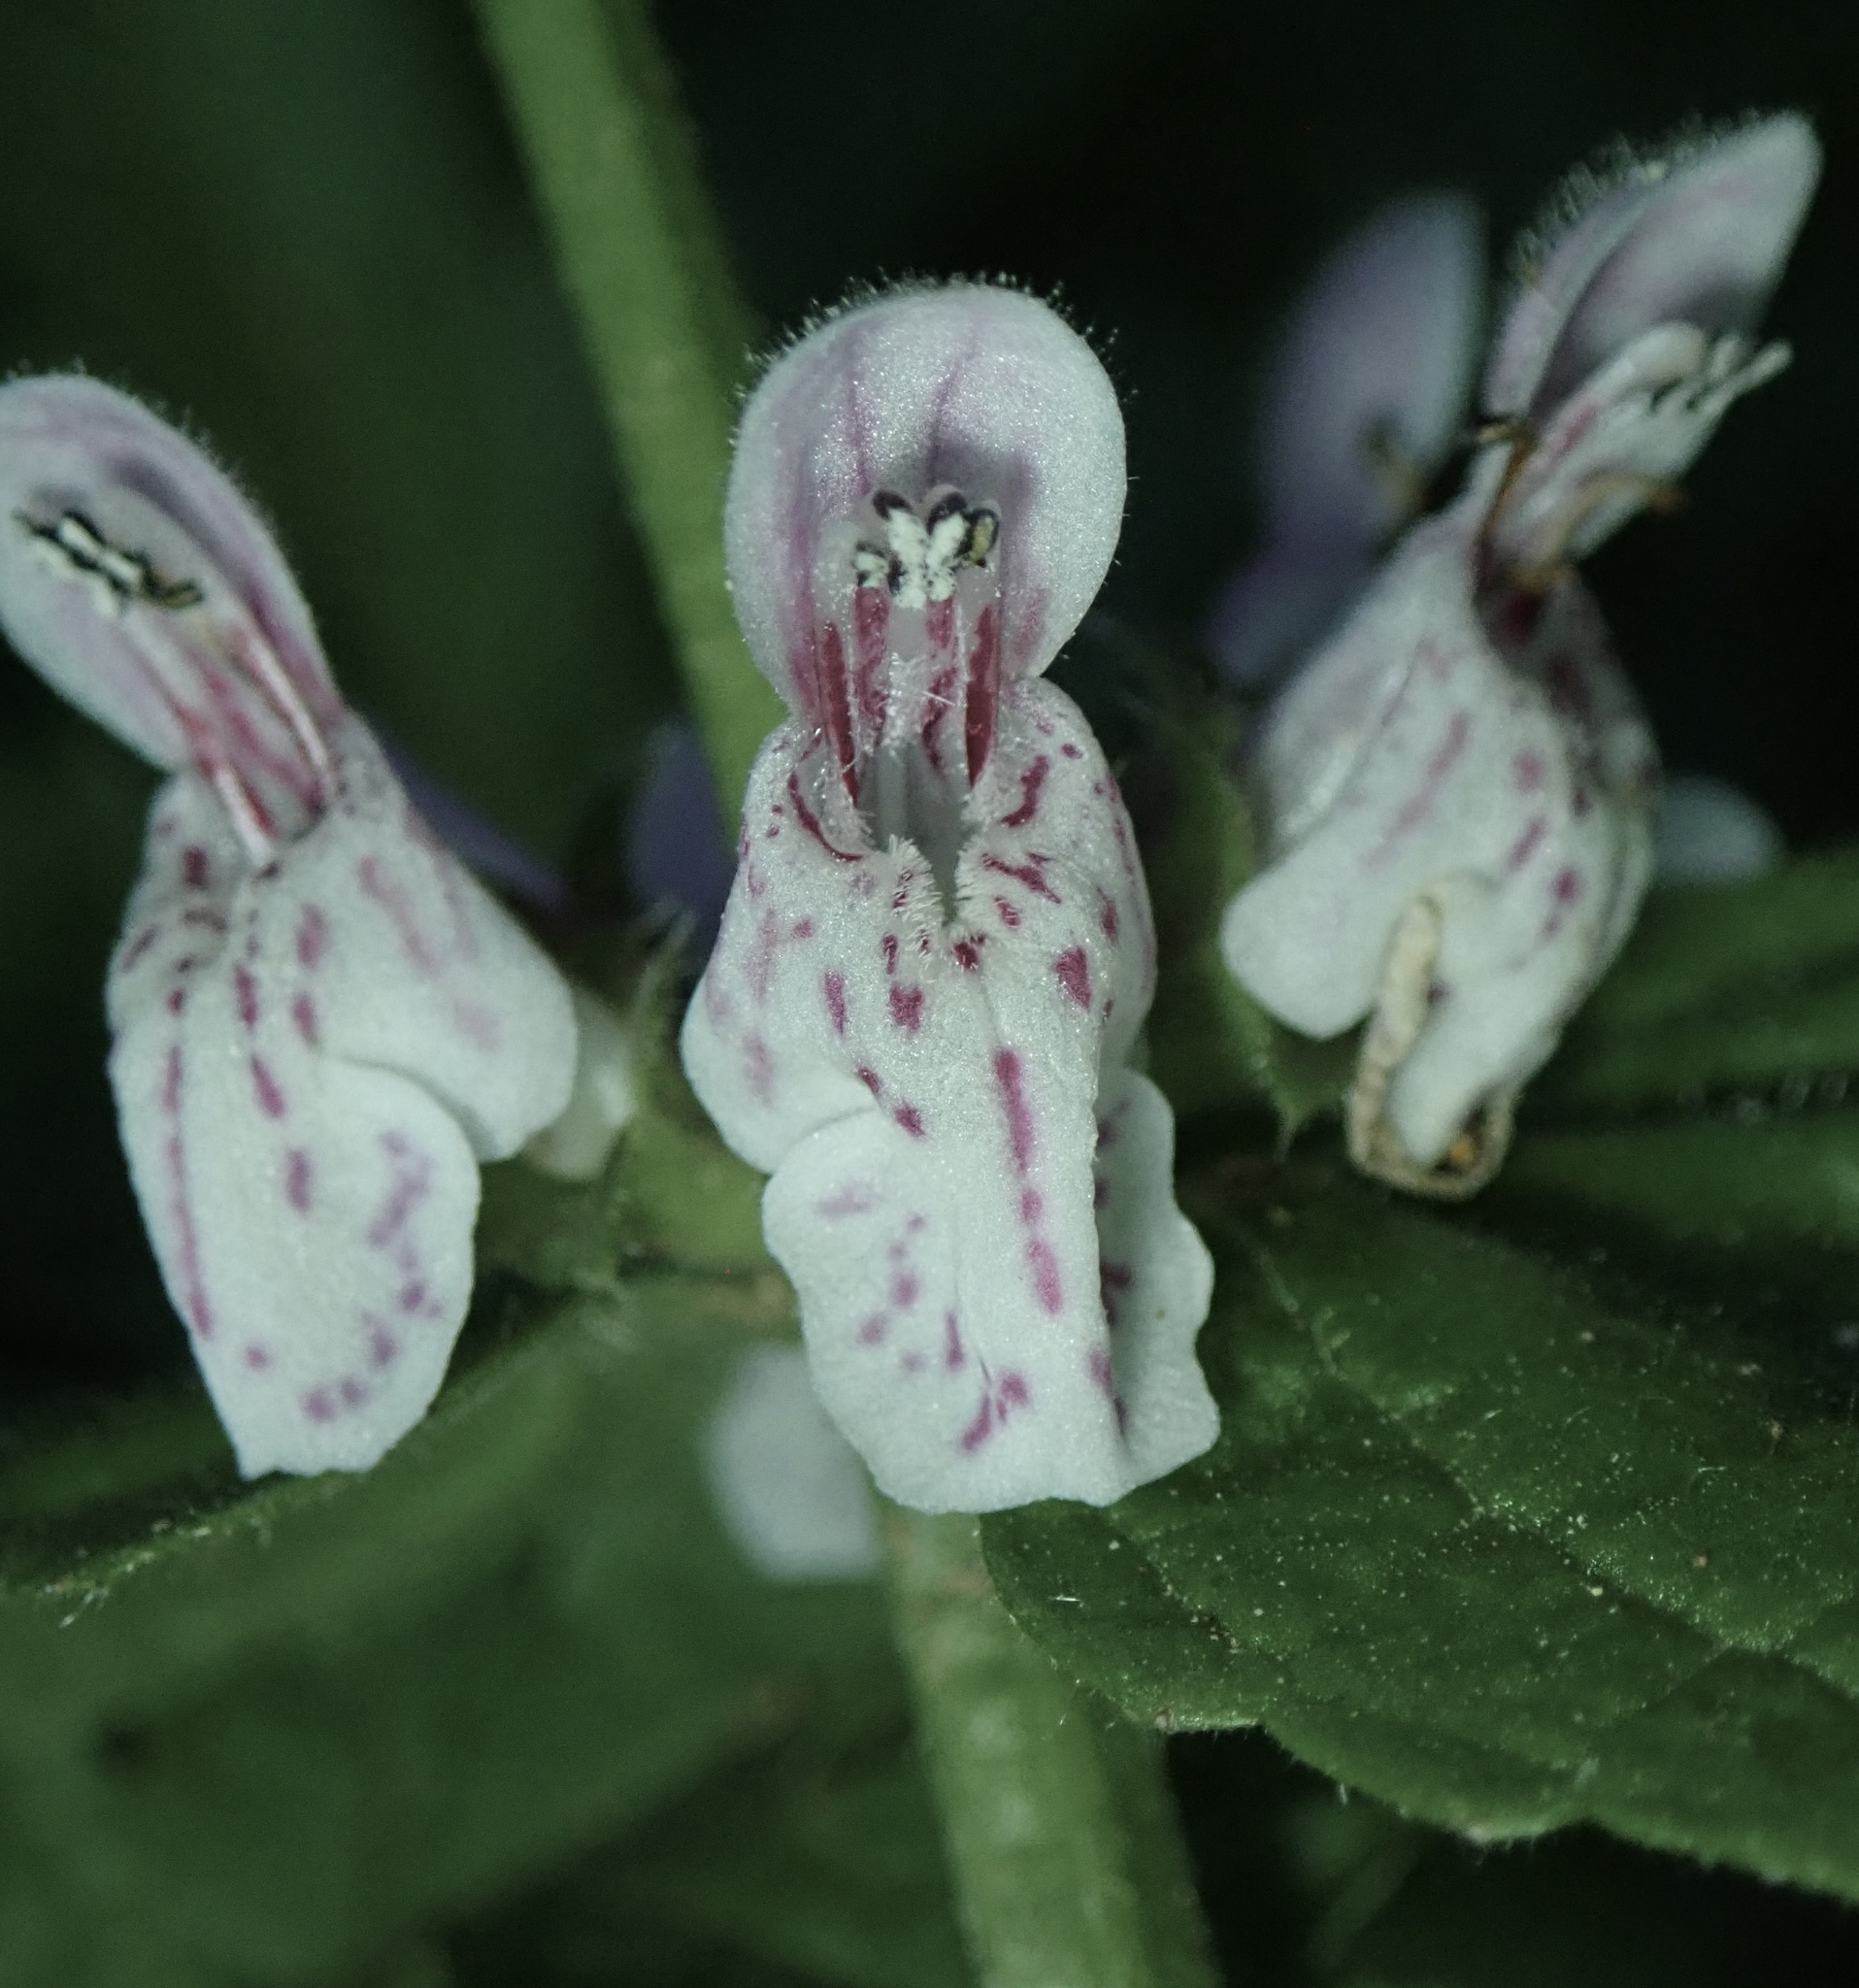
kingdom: Plantae
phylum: Tracheophyta
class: Magnoliopsida
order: Lamiales
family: Lamiaceae
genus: Stachys
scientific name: Stachys rigida
